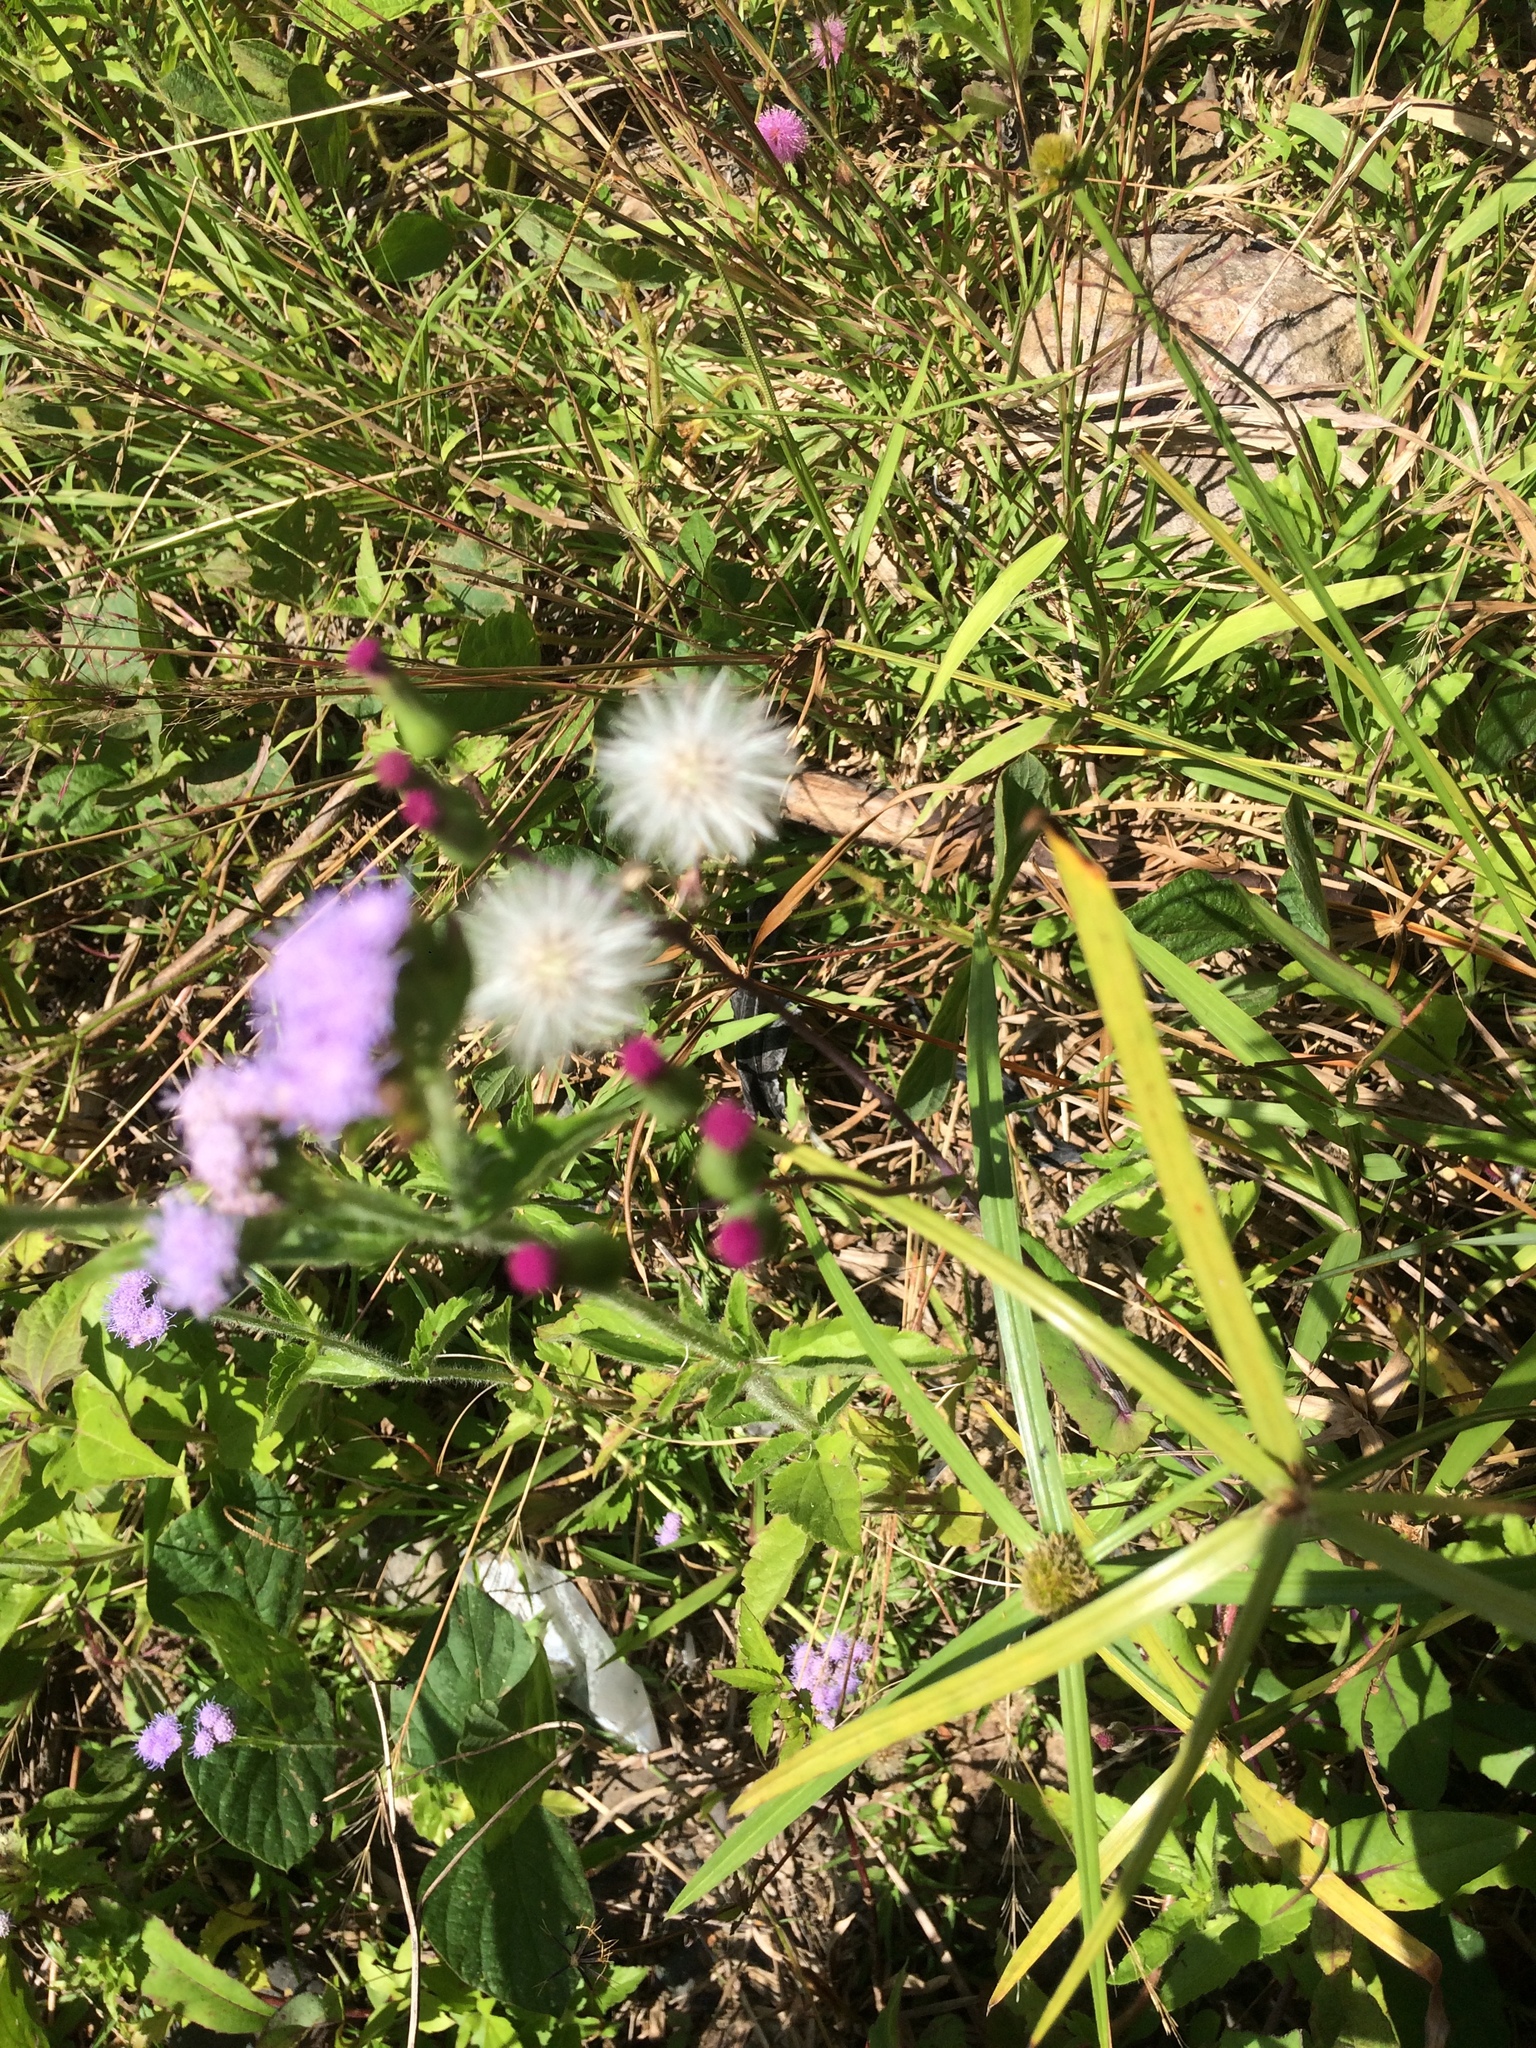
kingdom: Plantae
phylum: Tracheophyta
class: Magnoliopsida
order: Asterales
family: Asteraceae
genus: Emilia
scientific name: Emilia javanica
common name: Tassel-flower
